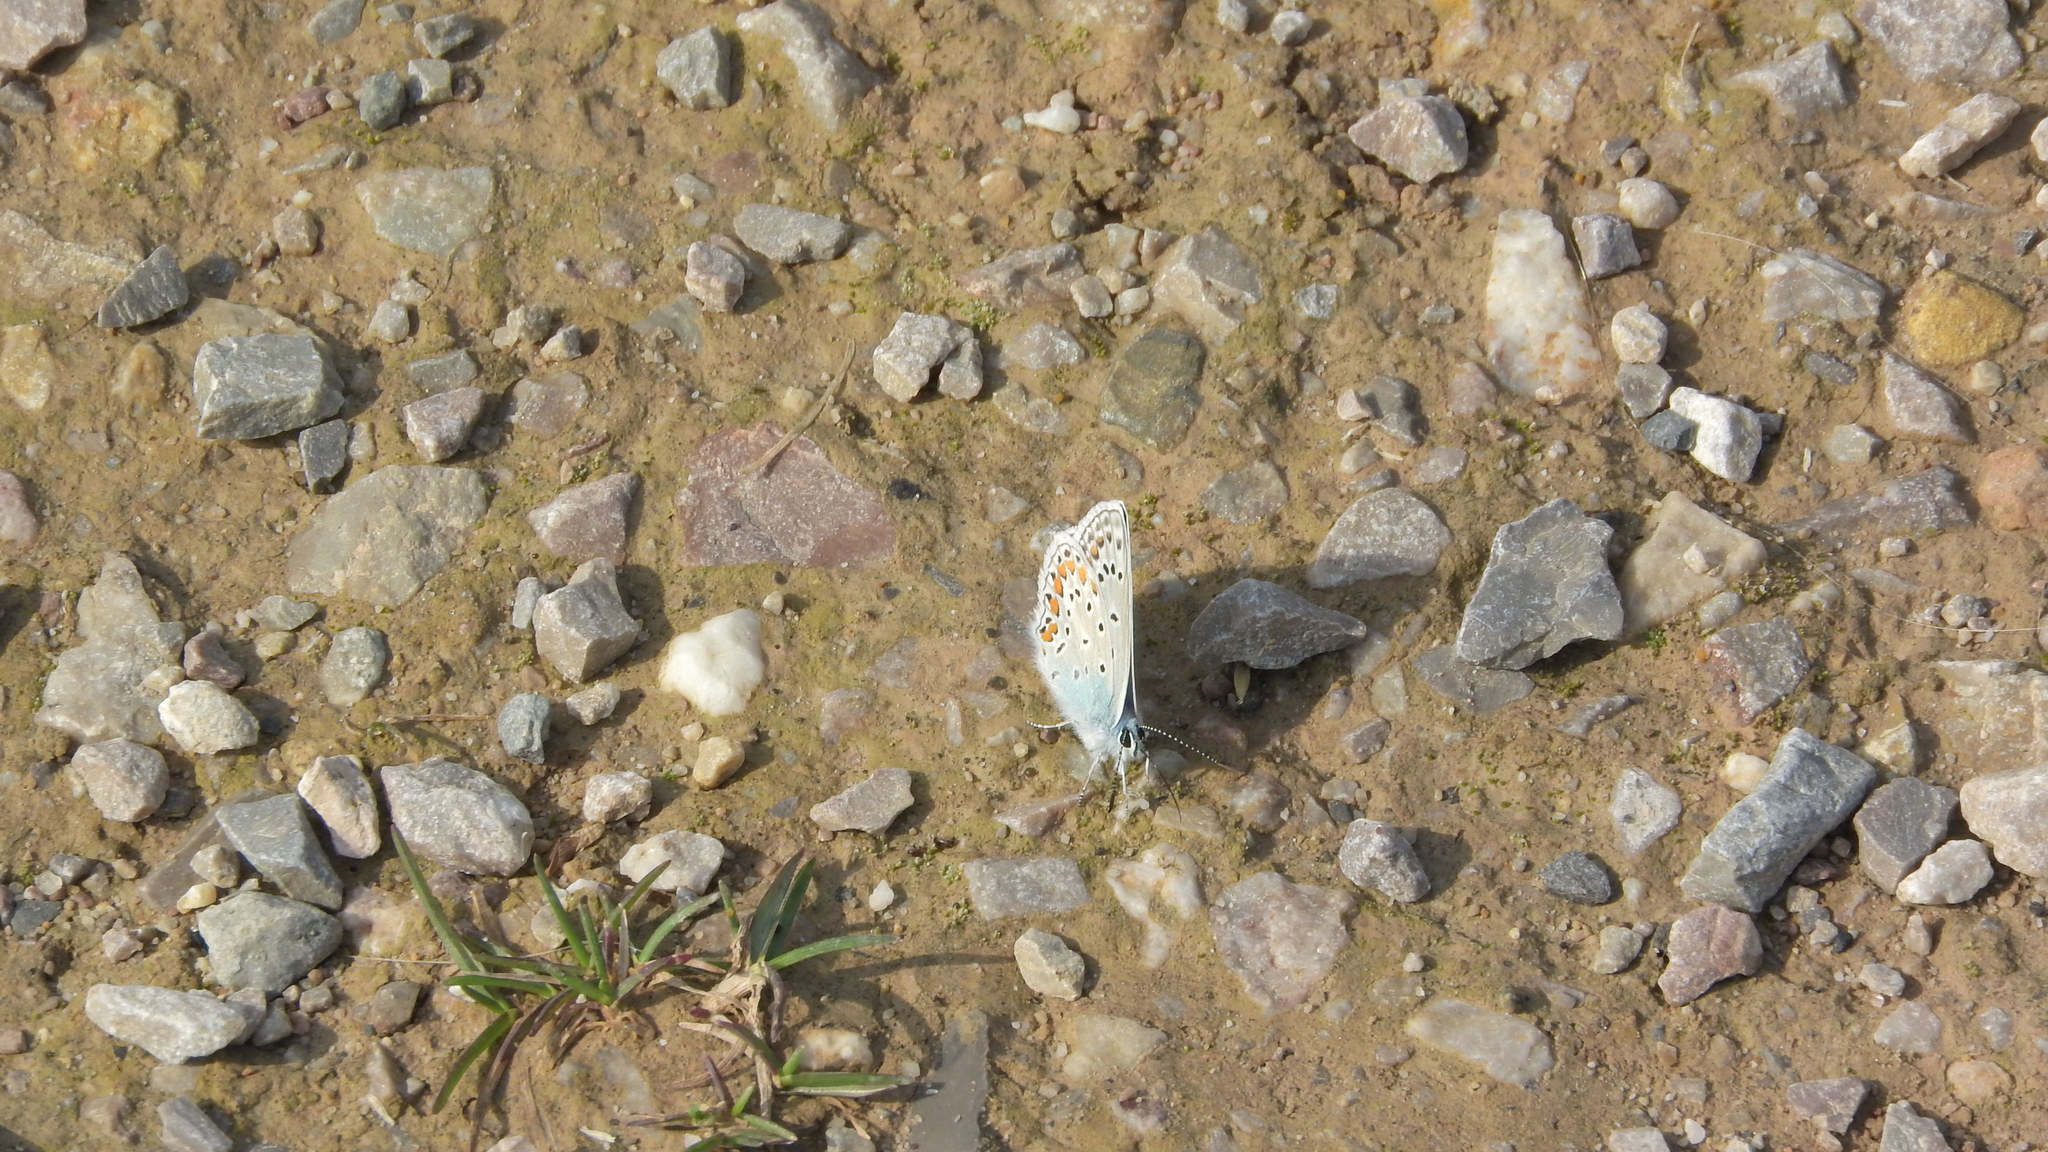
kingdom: Animalia
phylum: Arthropoda
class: Insecta
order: Lepidoptera
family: Lycaenidae
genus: Polyommatus
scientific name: Polyommatus icarus
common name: Common blue
